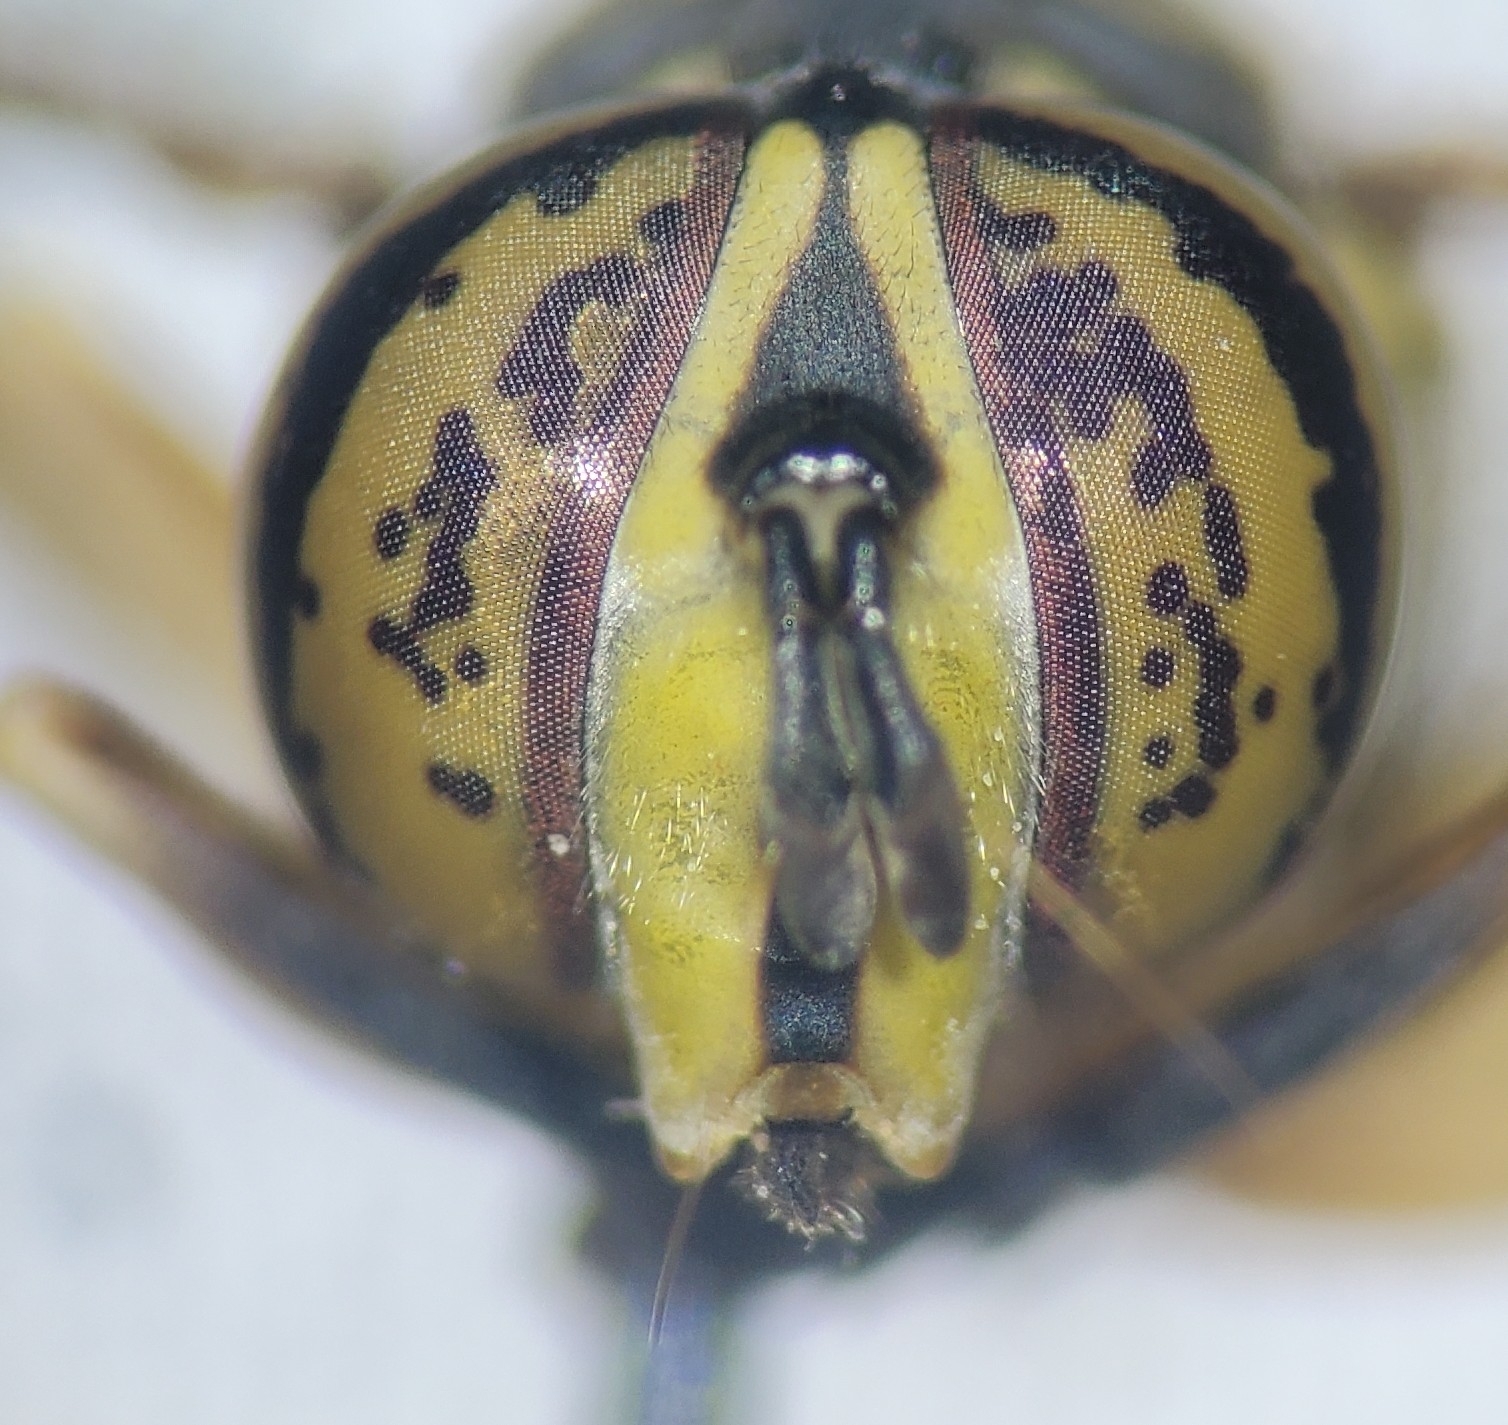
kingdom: Animalia
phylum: Arthropoda
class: Insecta
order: Diptera
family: Syrphidae
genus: Spilomyia
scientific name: Spilomyia longicornis
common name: Eastern hornet fly
